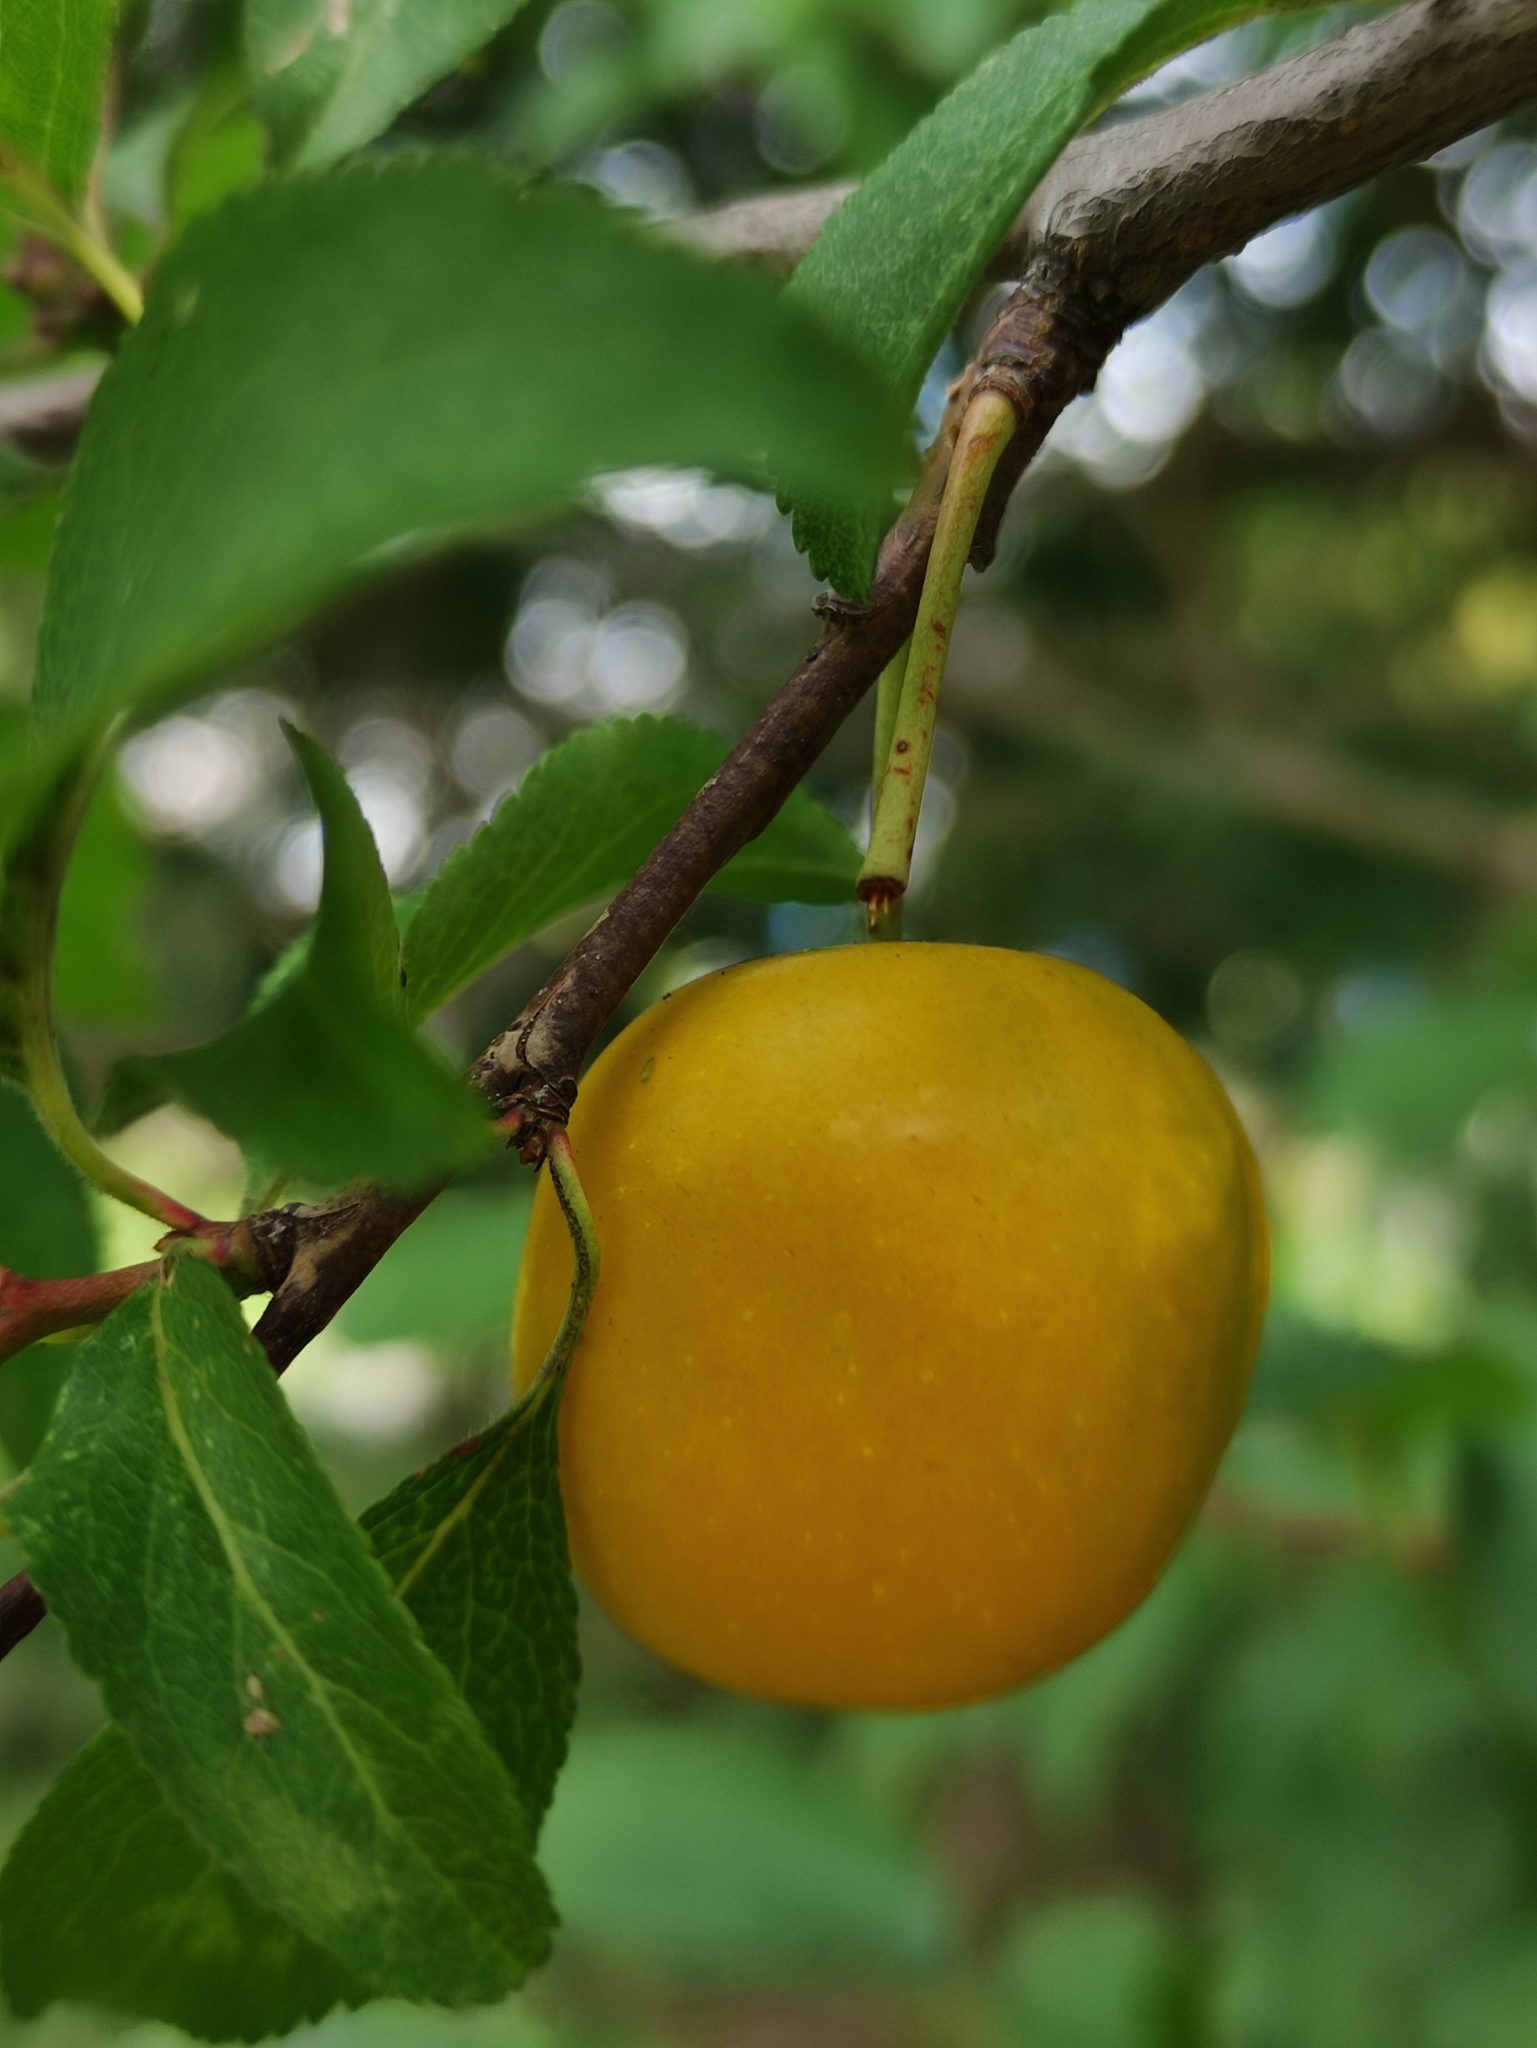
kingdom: Plantae
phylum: Tracheophyta
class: Magnoliopsida
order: Rosales
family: Rosaceae
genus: Prunus
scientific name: Prunus cerasifera
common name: Cherry plum
